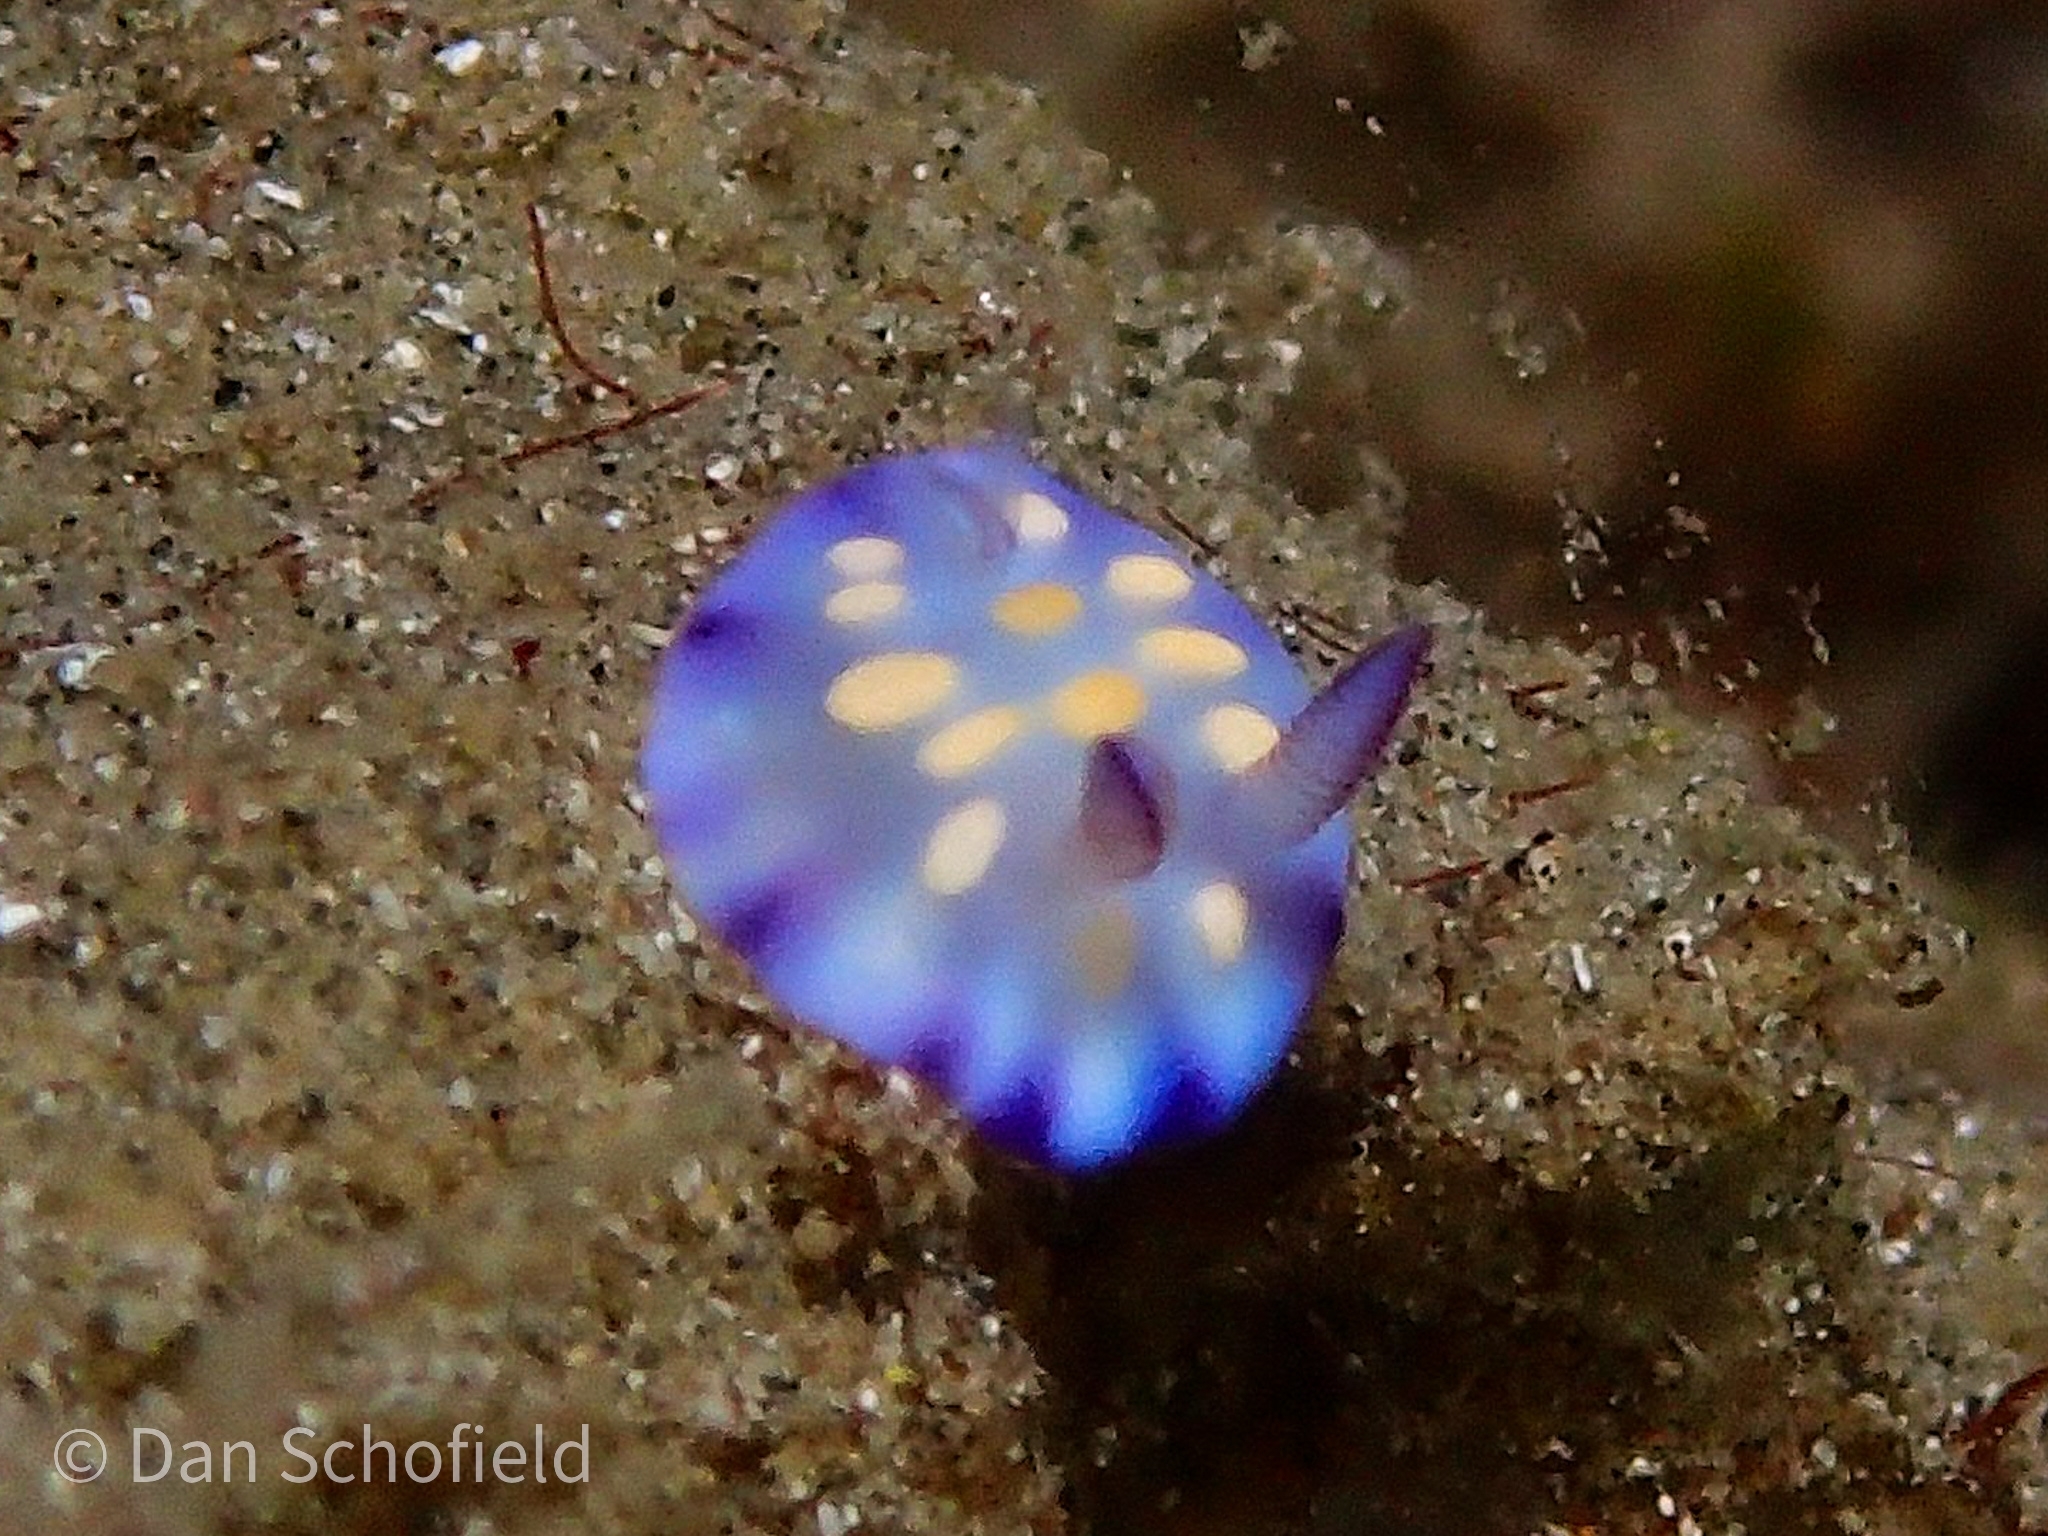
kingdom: Animalia
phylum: Mollusca
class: Gastropoda
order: Nudibranchia
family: Chromodorididae
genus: Goniobranchus
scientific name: Goniobranchus hintuanensis
